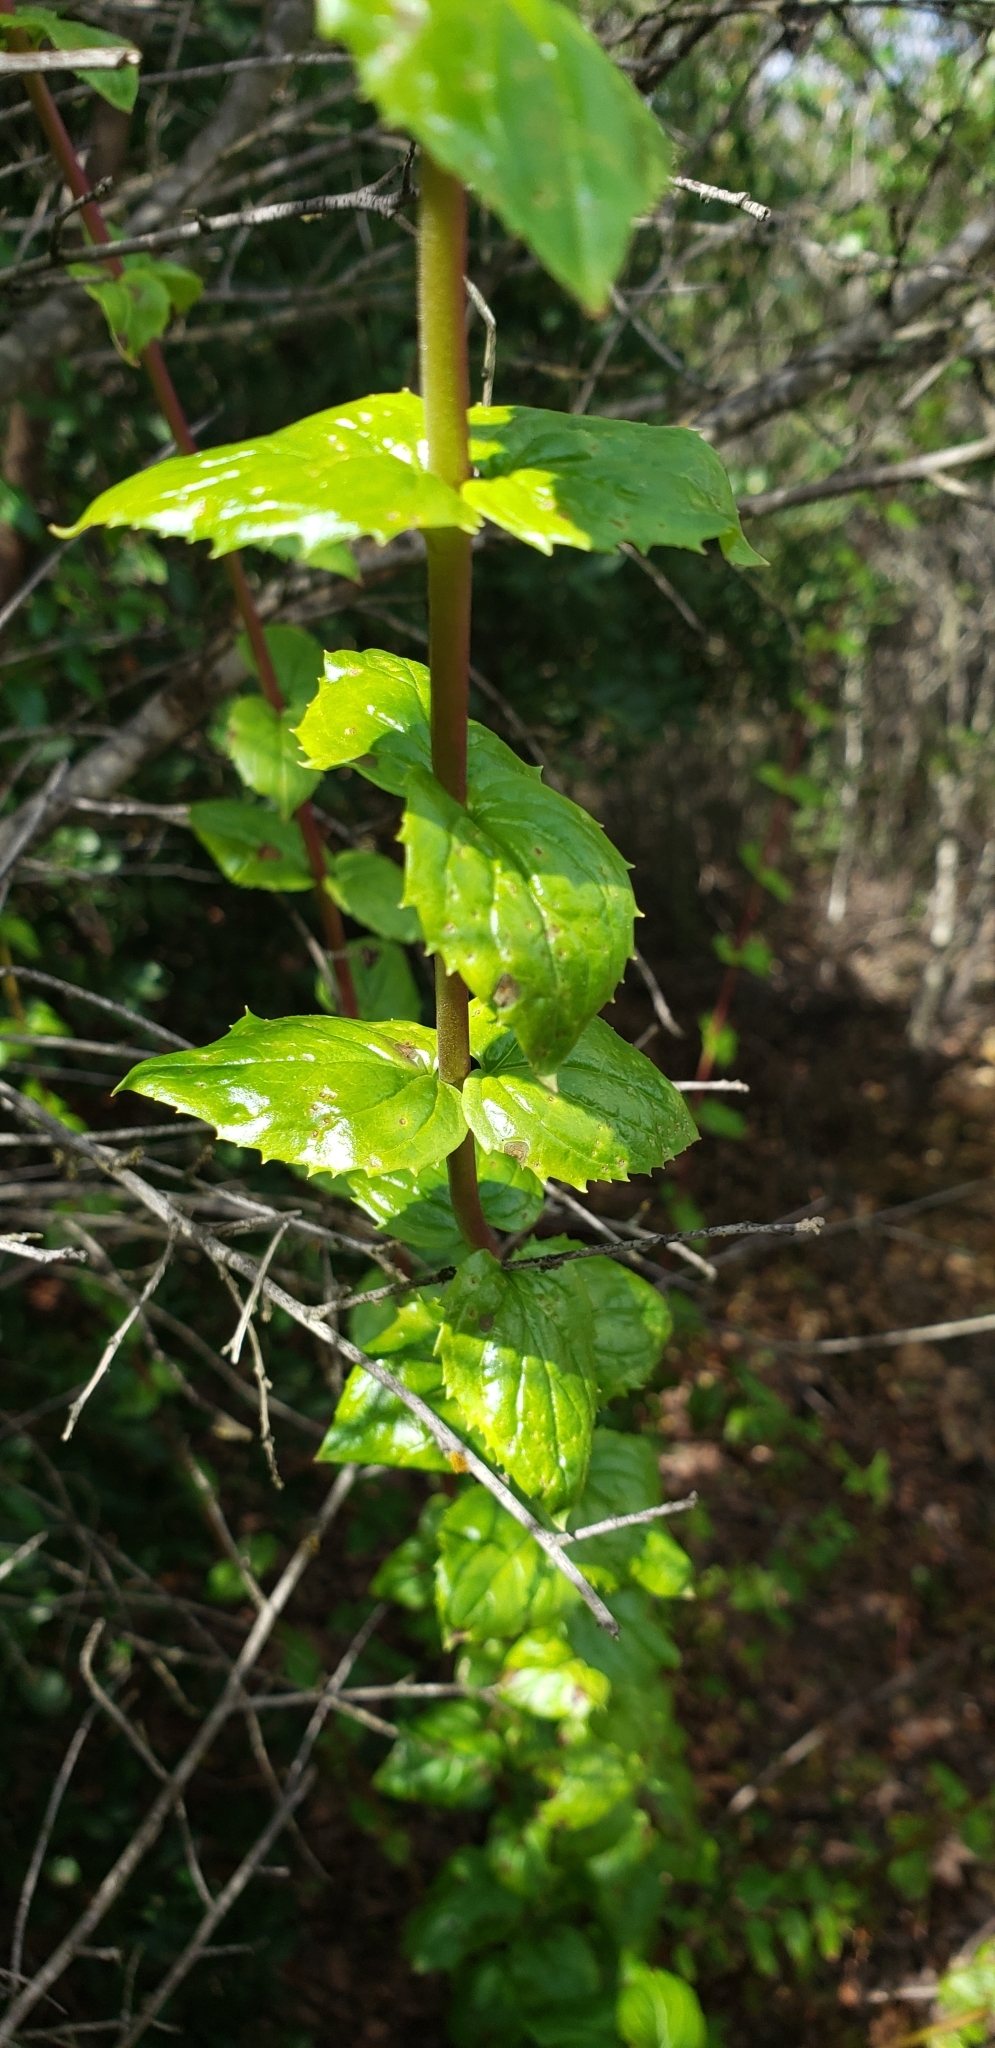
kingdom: Plantae
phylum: Tracheophyta
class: Magnoliopsida
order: Lamiales
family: Plantaginaceae
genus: Keckiella
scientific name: Keckiella cordifolia
